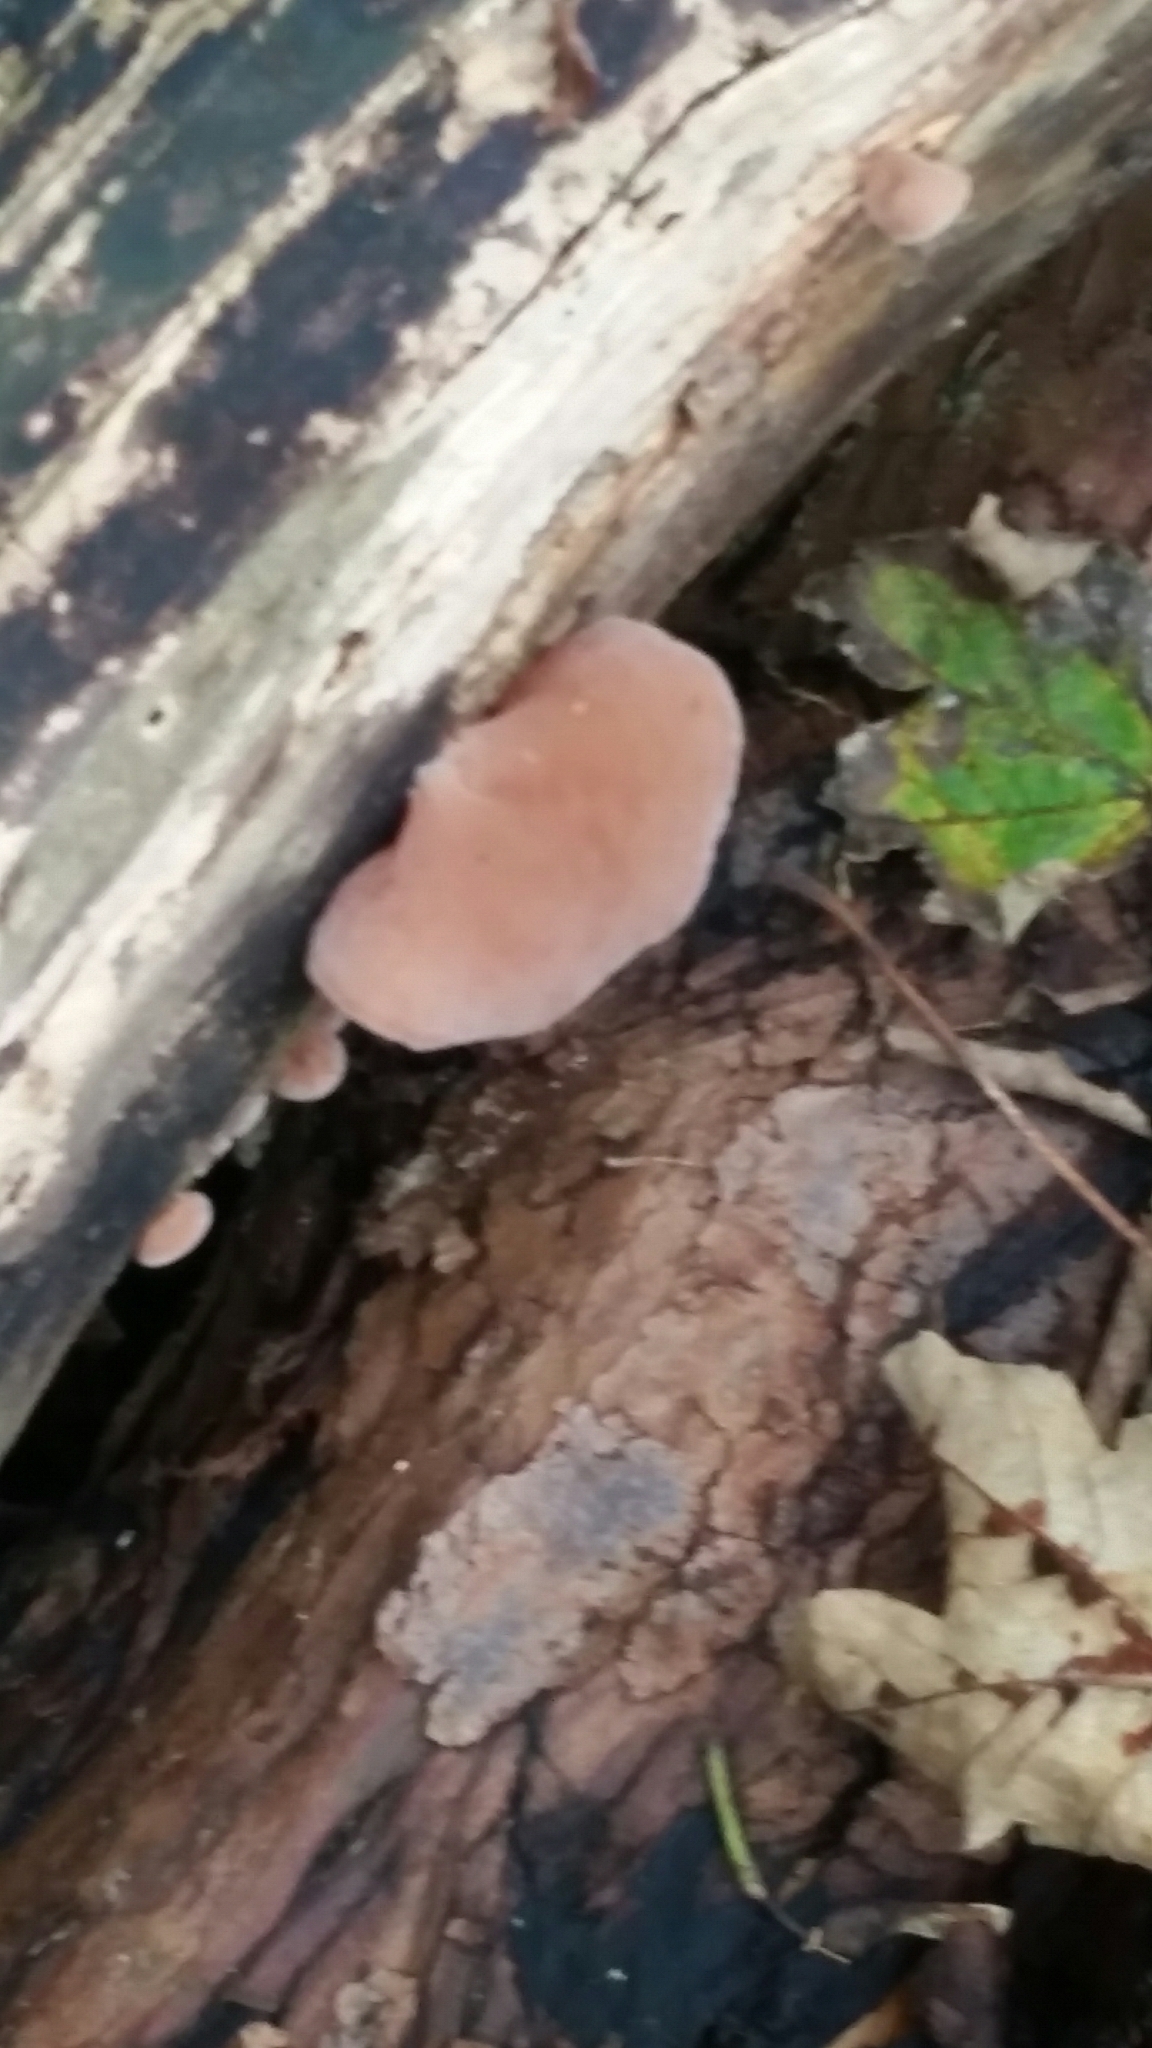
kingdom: Fungi
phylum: Basidiomycota
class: Agaricomycetes
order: Auriculariales
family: Auriculariaceae
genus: Auricularia
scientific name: Auricularia auricula-judae
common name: Jelly ear
